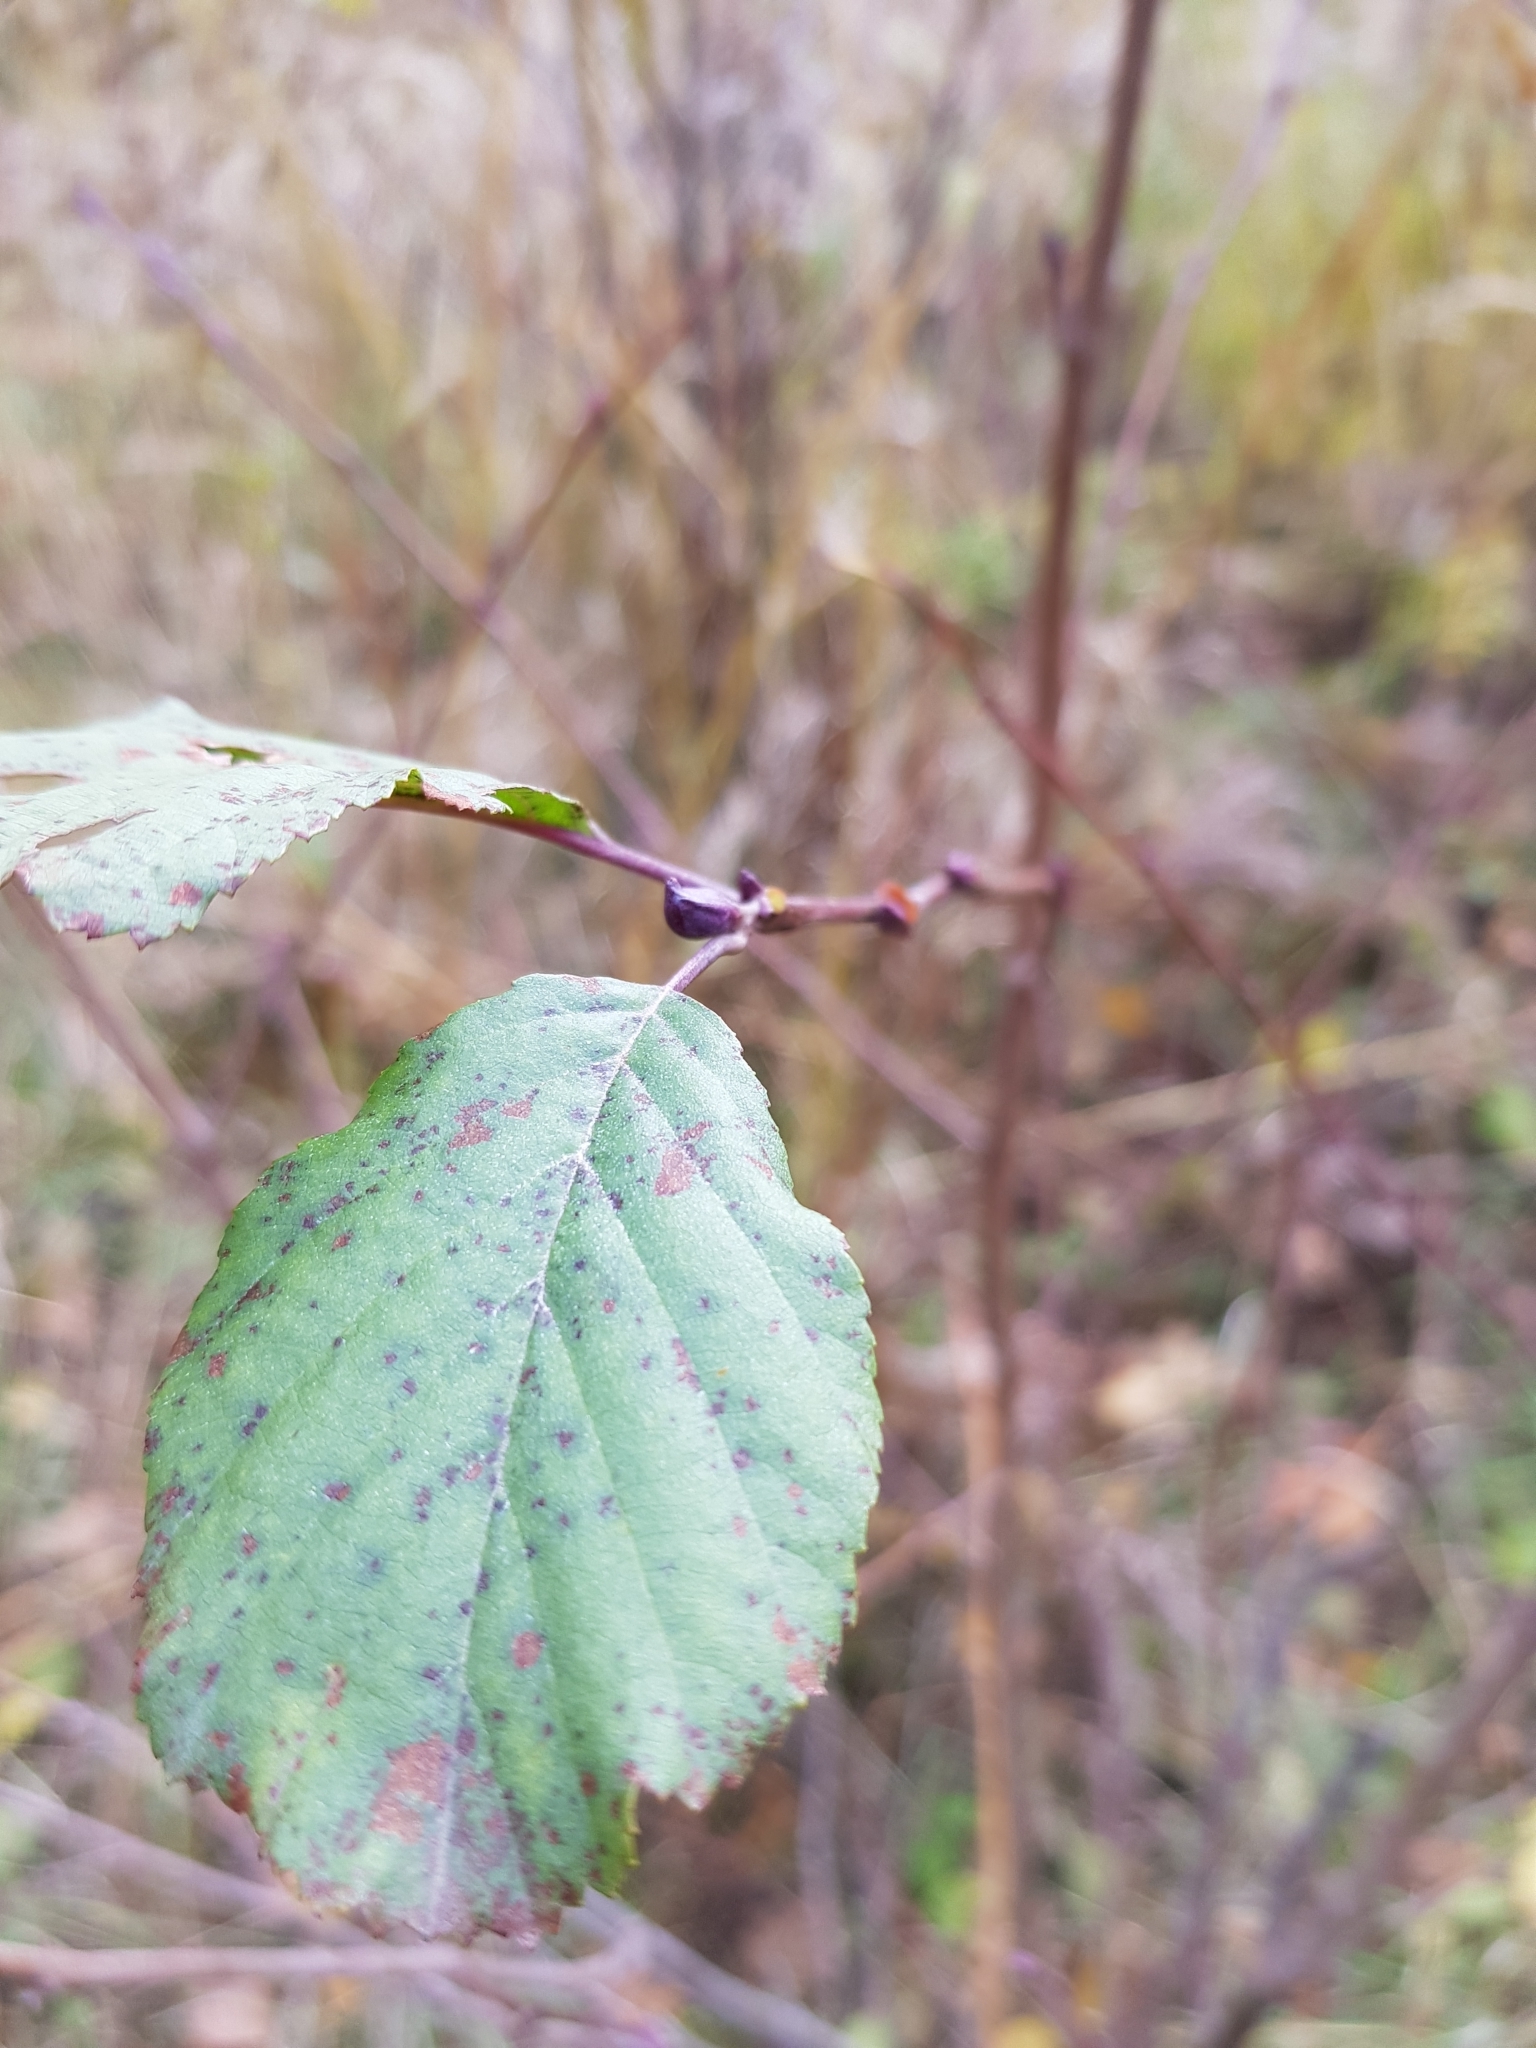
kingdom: Plantae
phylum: Tracheophyta
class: Magnoliopsida
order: Fagales
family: Betulaceae
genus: Alnus
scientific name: Alnus incana
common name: Grey alder
